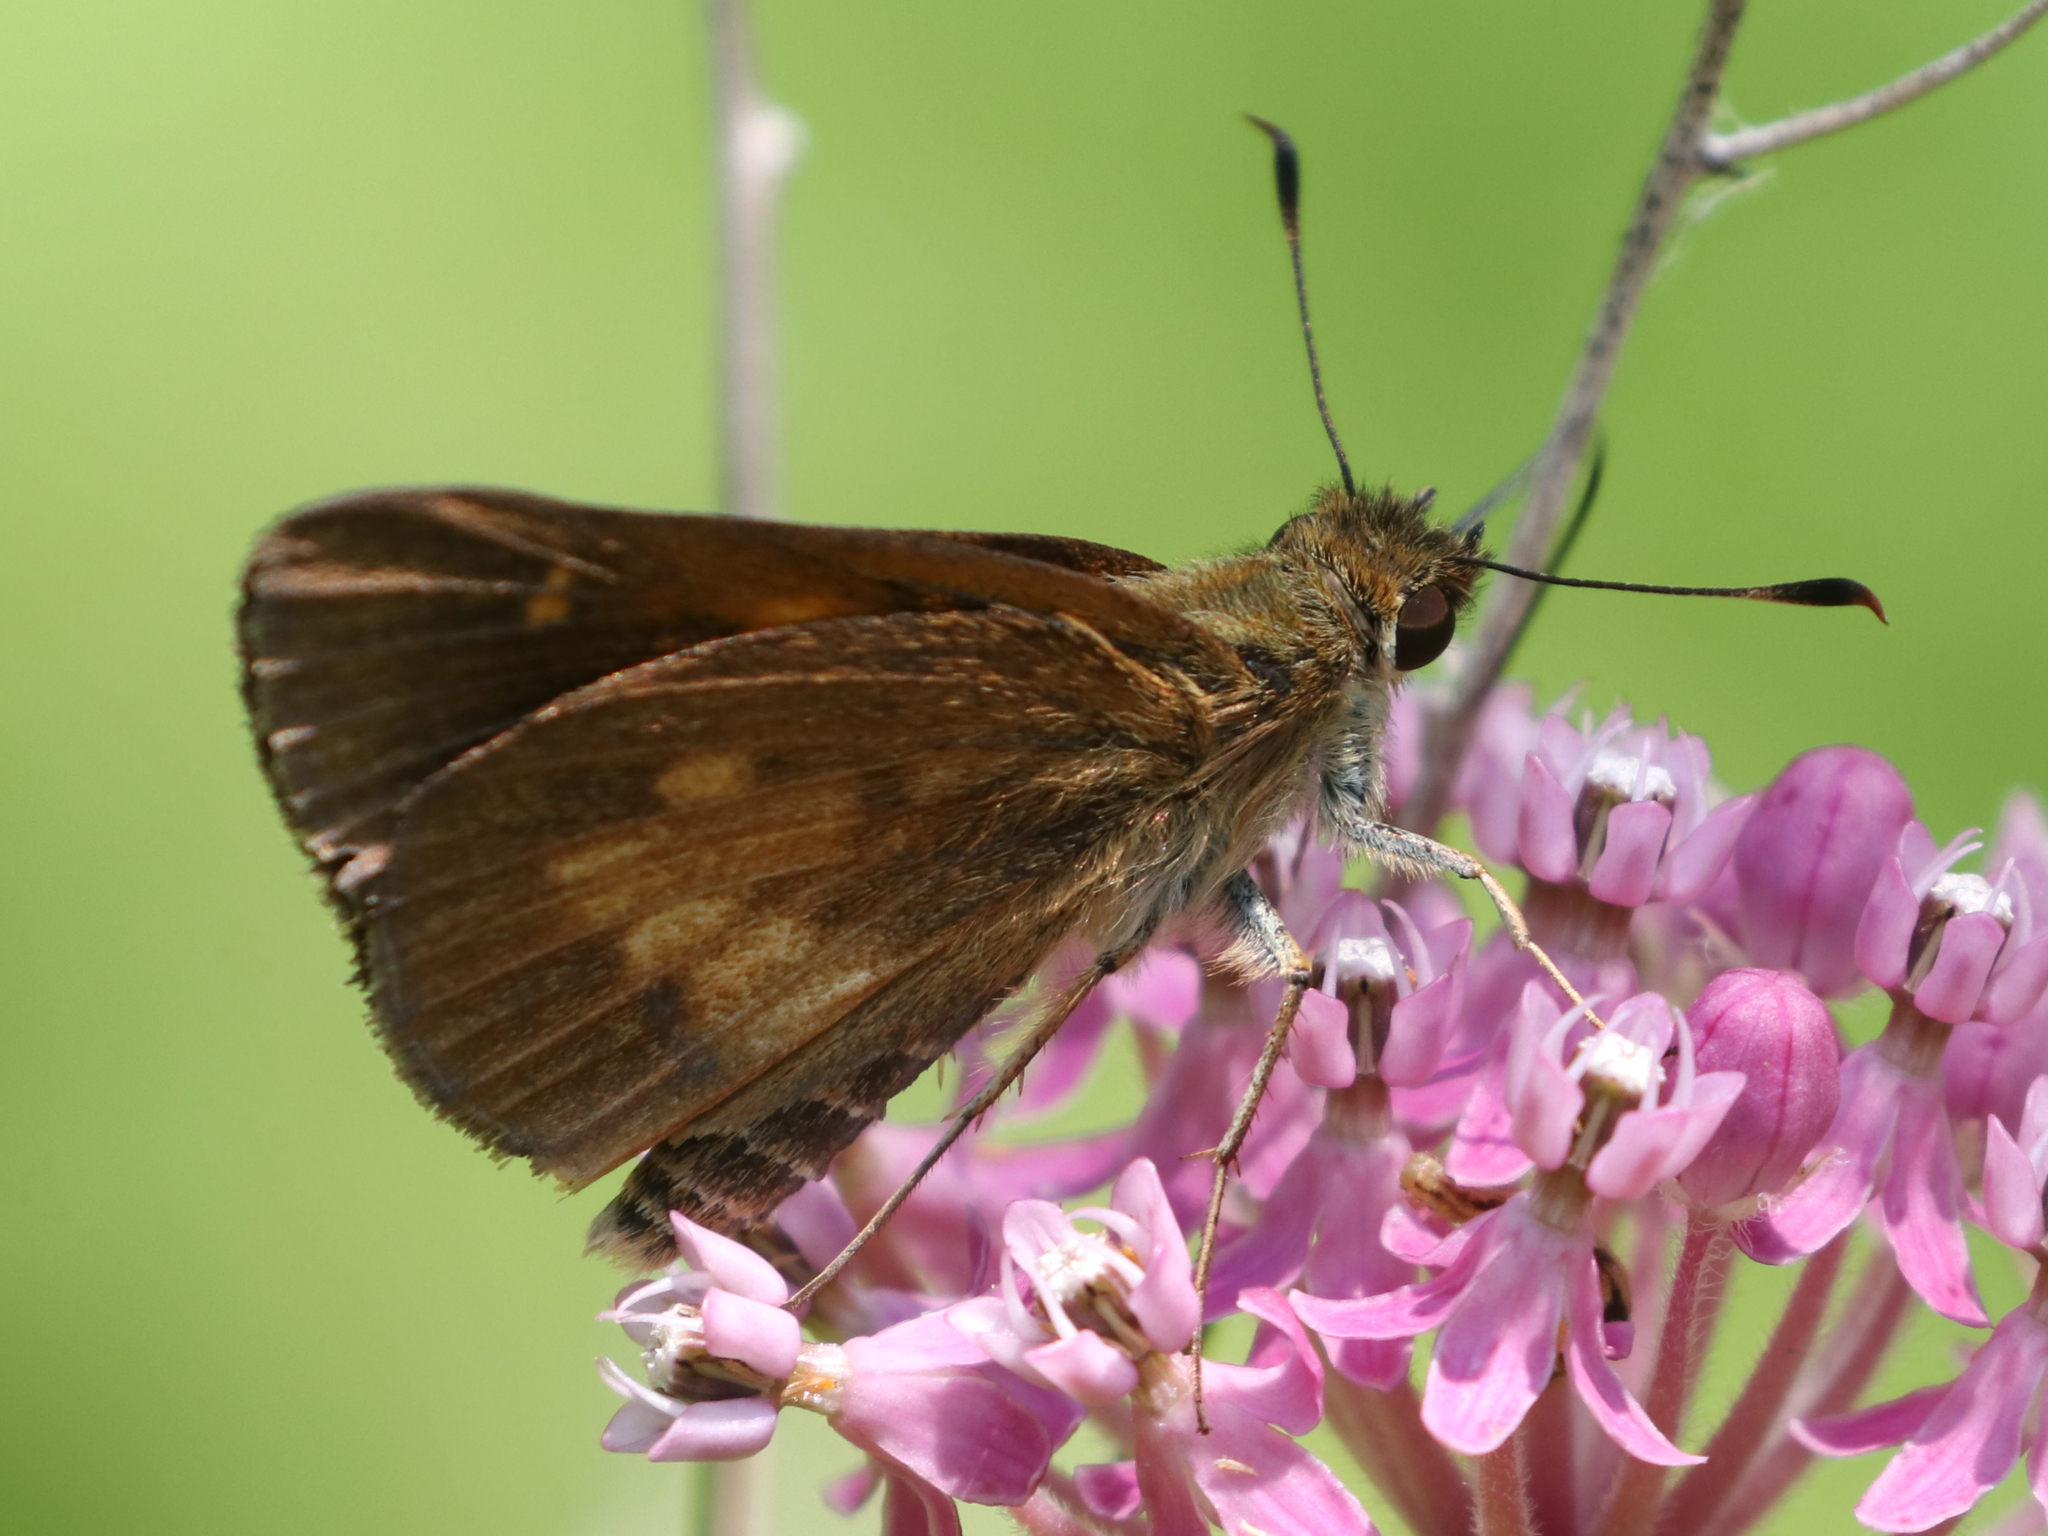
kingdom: Animalia
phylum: Arthropoda
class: Insecta
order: Lepidoptera
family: Hesperiidae
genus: Poanes
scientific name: Poanes viator
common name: Broad-winged skipper
